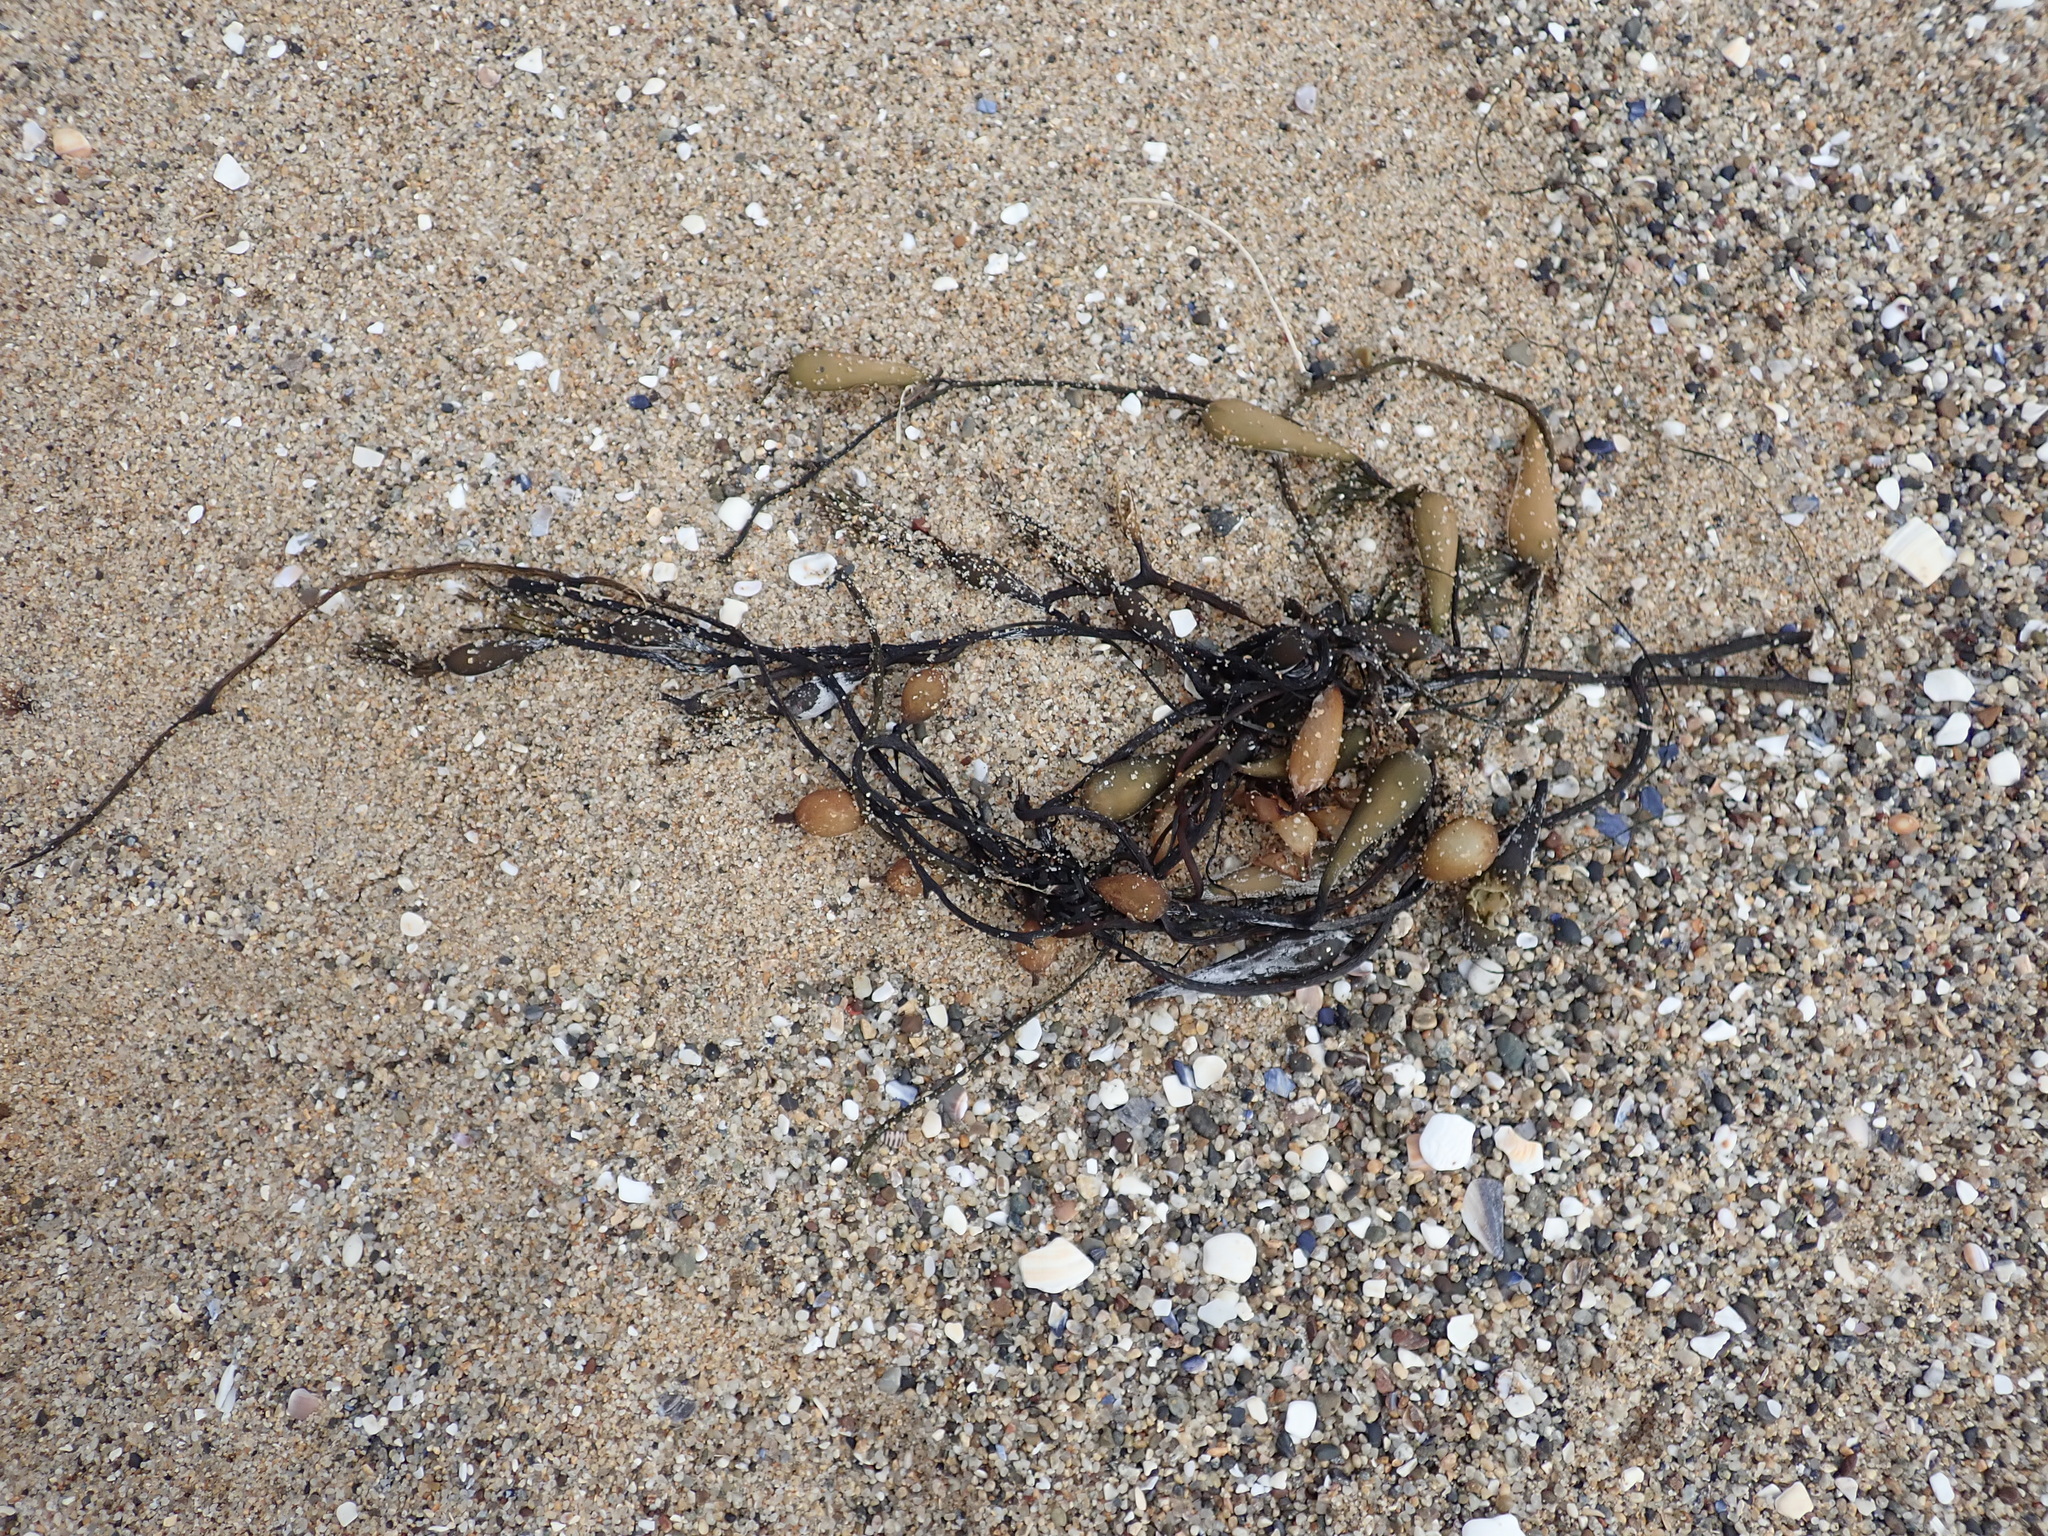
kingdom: Chromista
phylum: Ochrophyta
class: Phaeophyceae
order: Laminariales
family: Laminariaceae
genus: Macrocystis
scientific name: Macrocystis pyrifera
